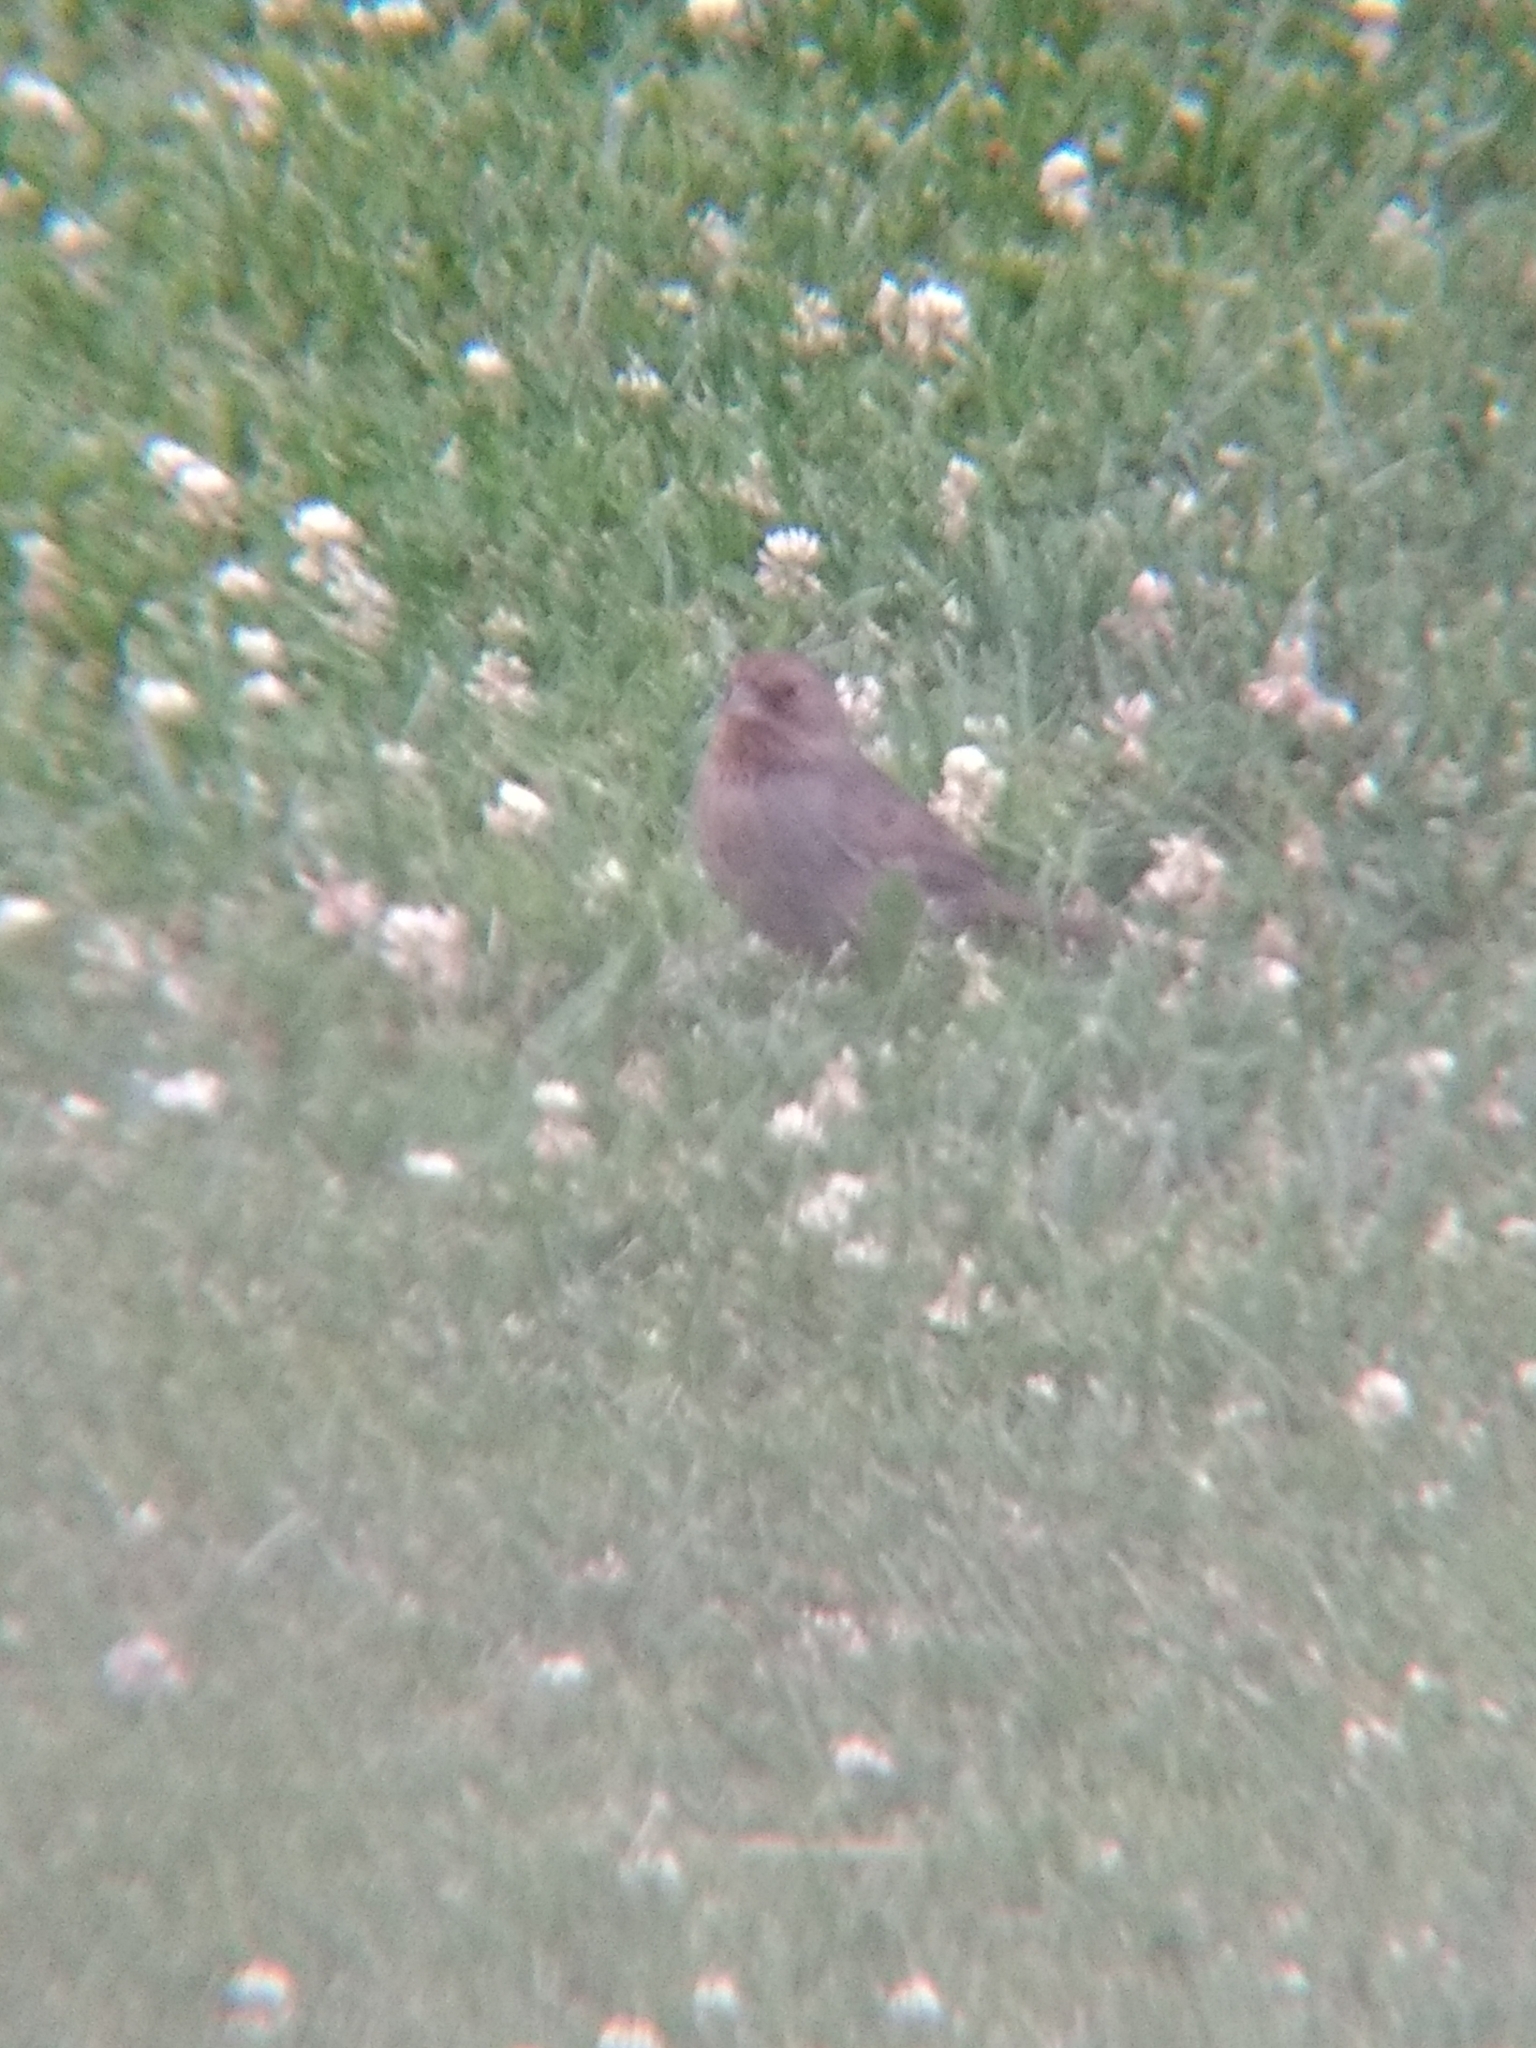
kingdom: Animalia
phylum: Chordata
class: Aves
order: Passeriformes
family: Passerellidae
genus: Melozone
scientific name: Melozone crissalis
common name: California towhee
